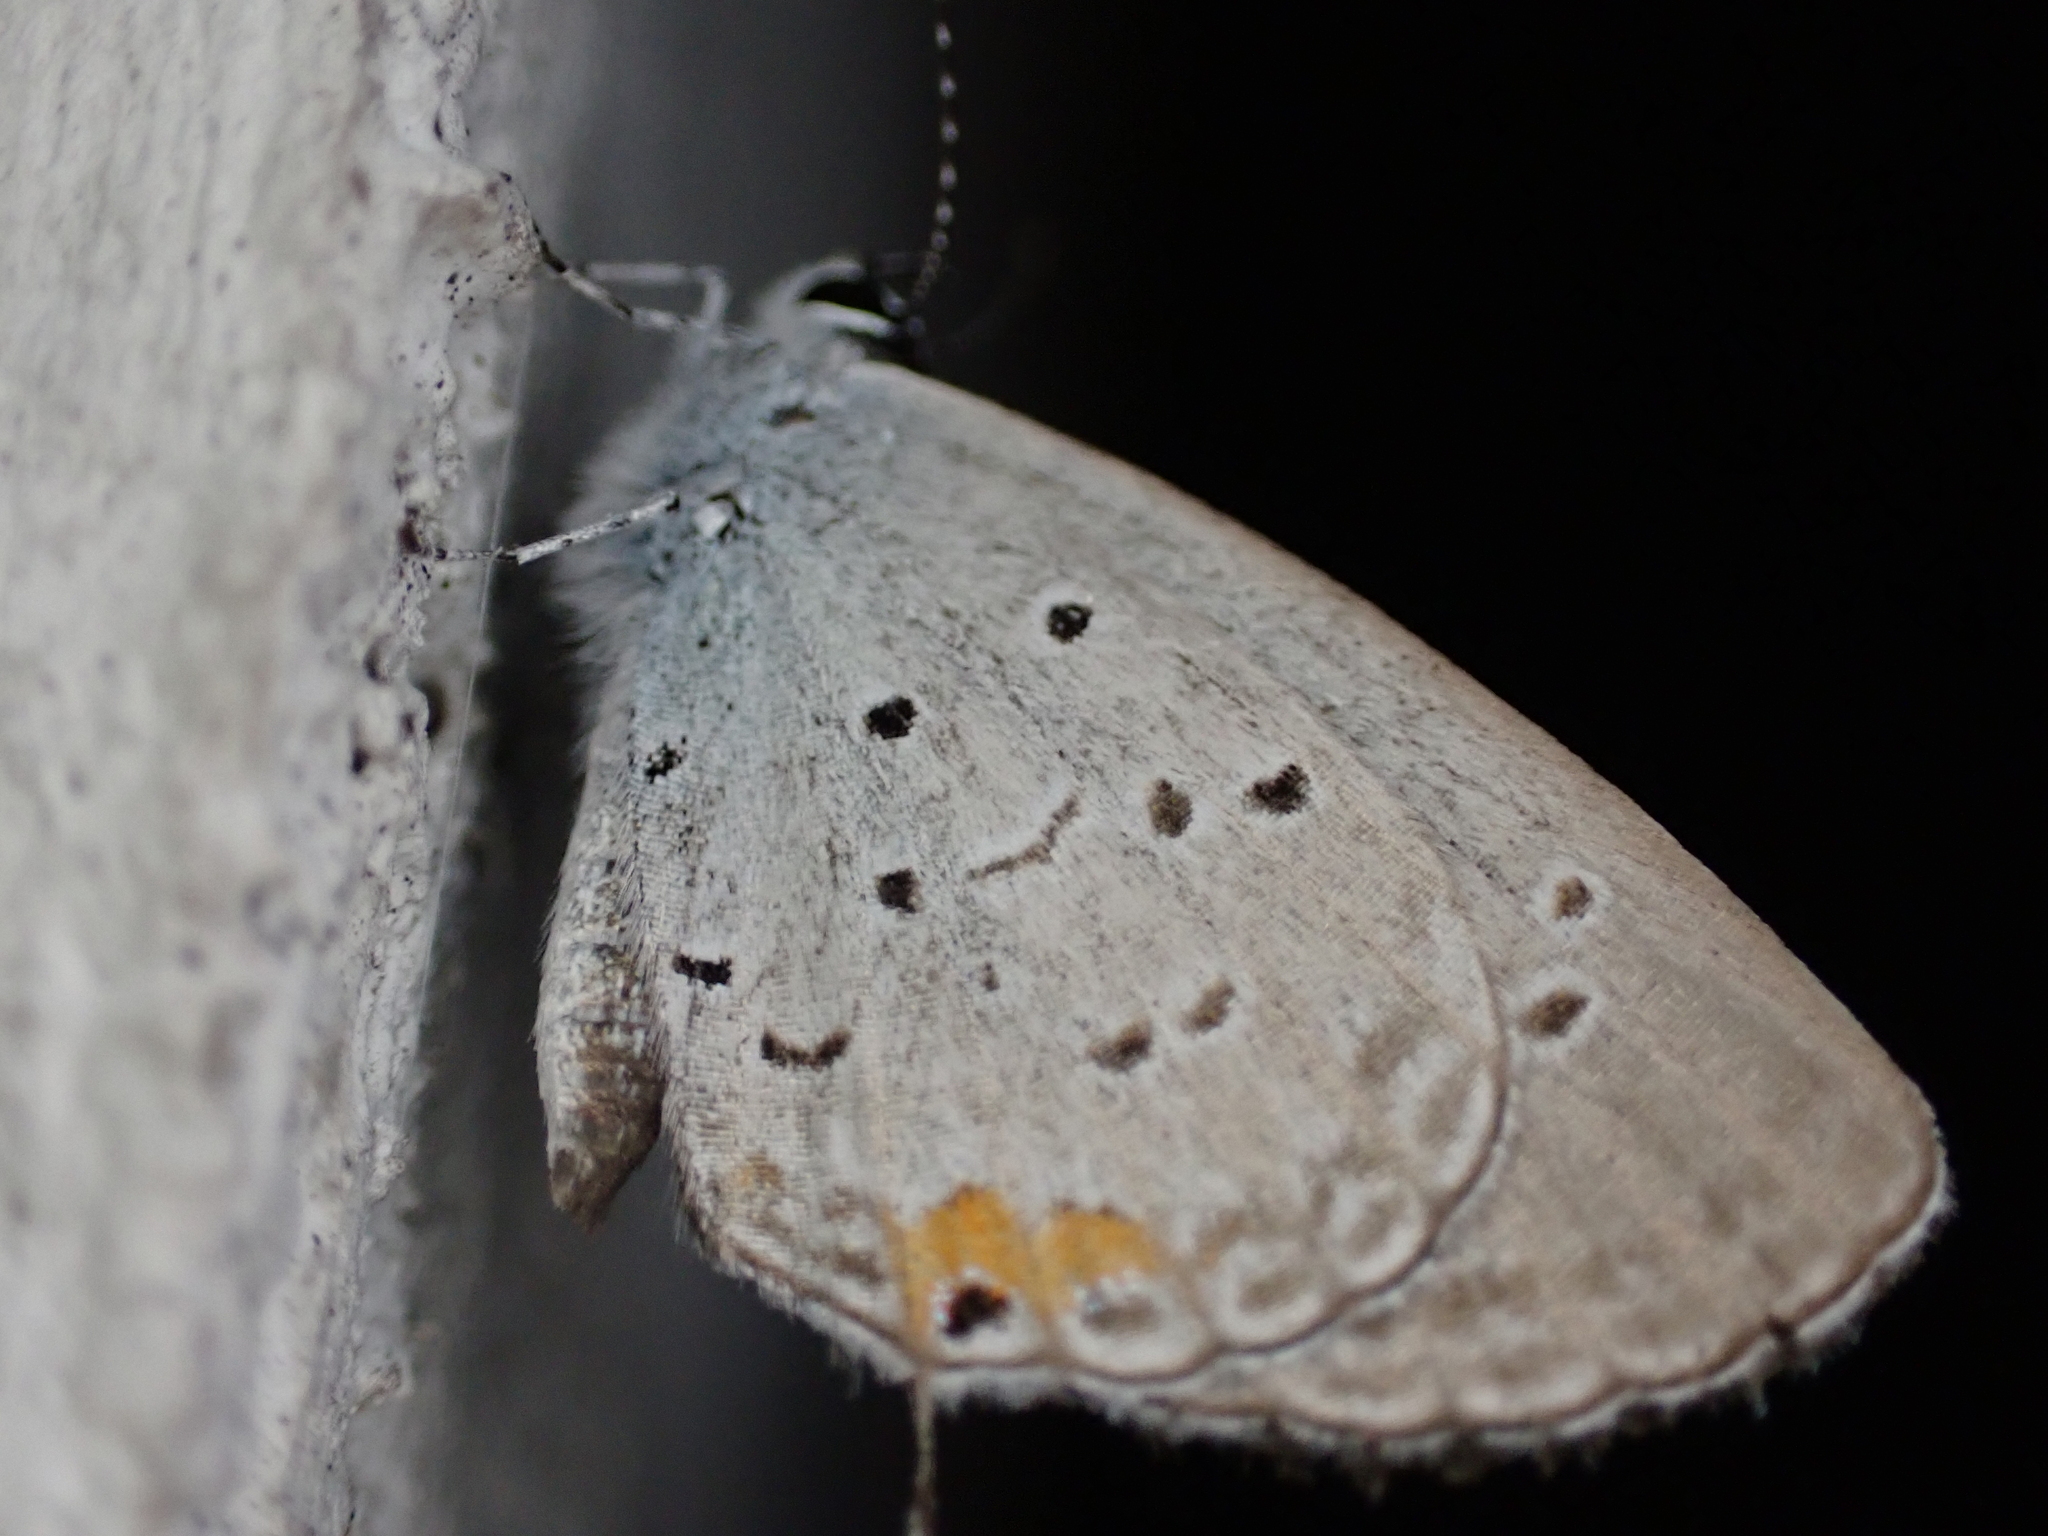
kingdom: Animalia
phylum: Arthropoda
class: Insecta
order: Lepidoptera
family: Lycaenidae
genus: Elkalyce
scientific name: Elkalyce comyntas
